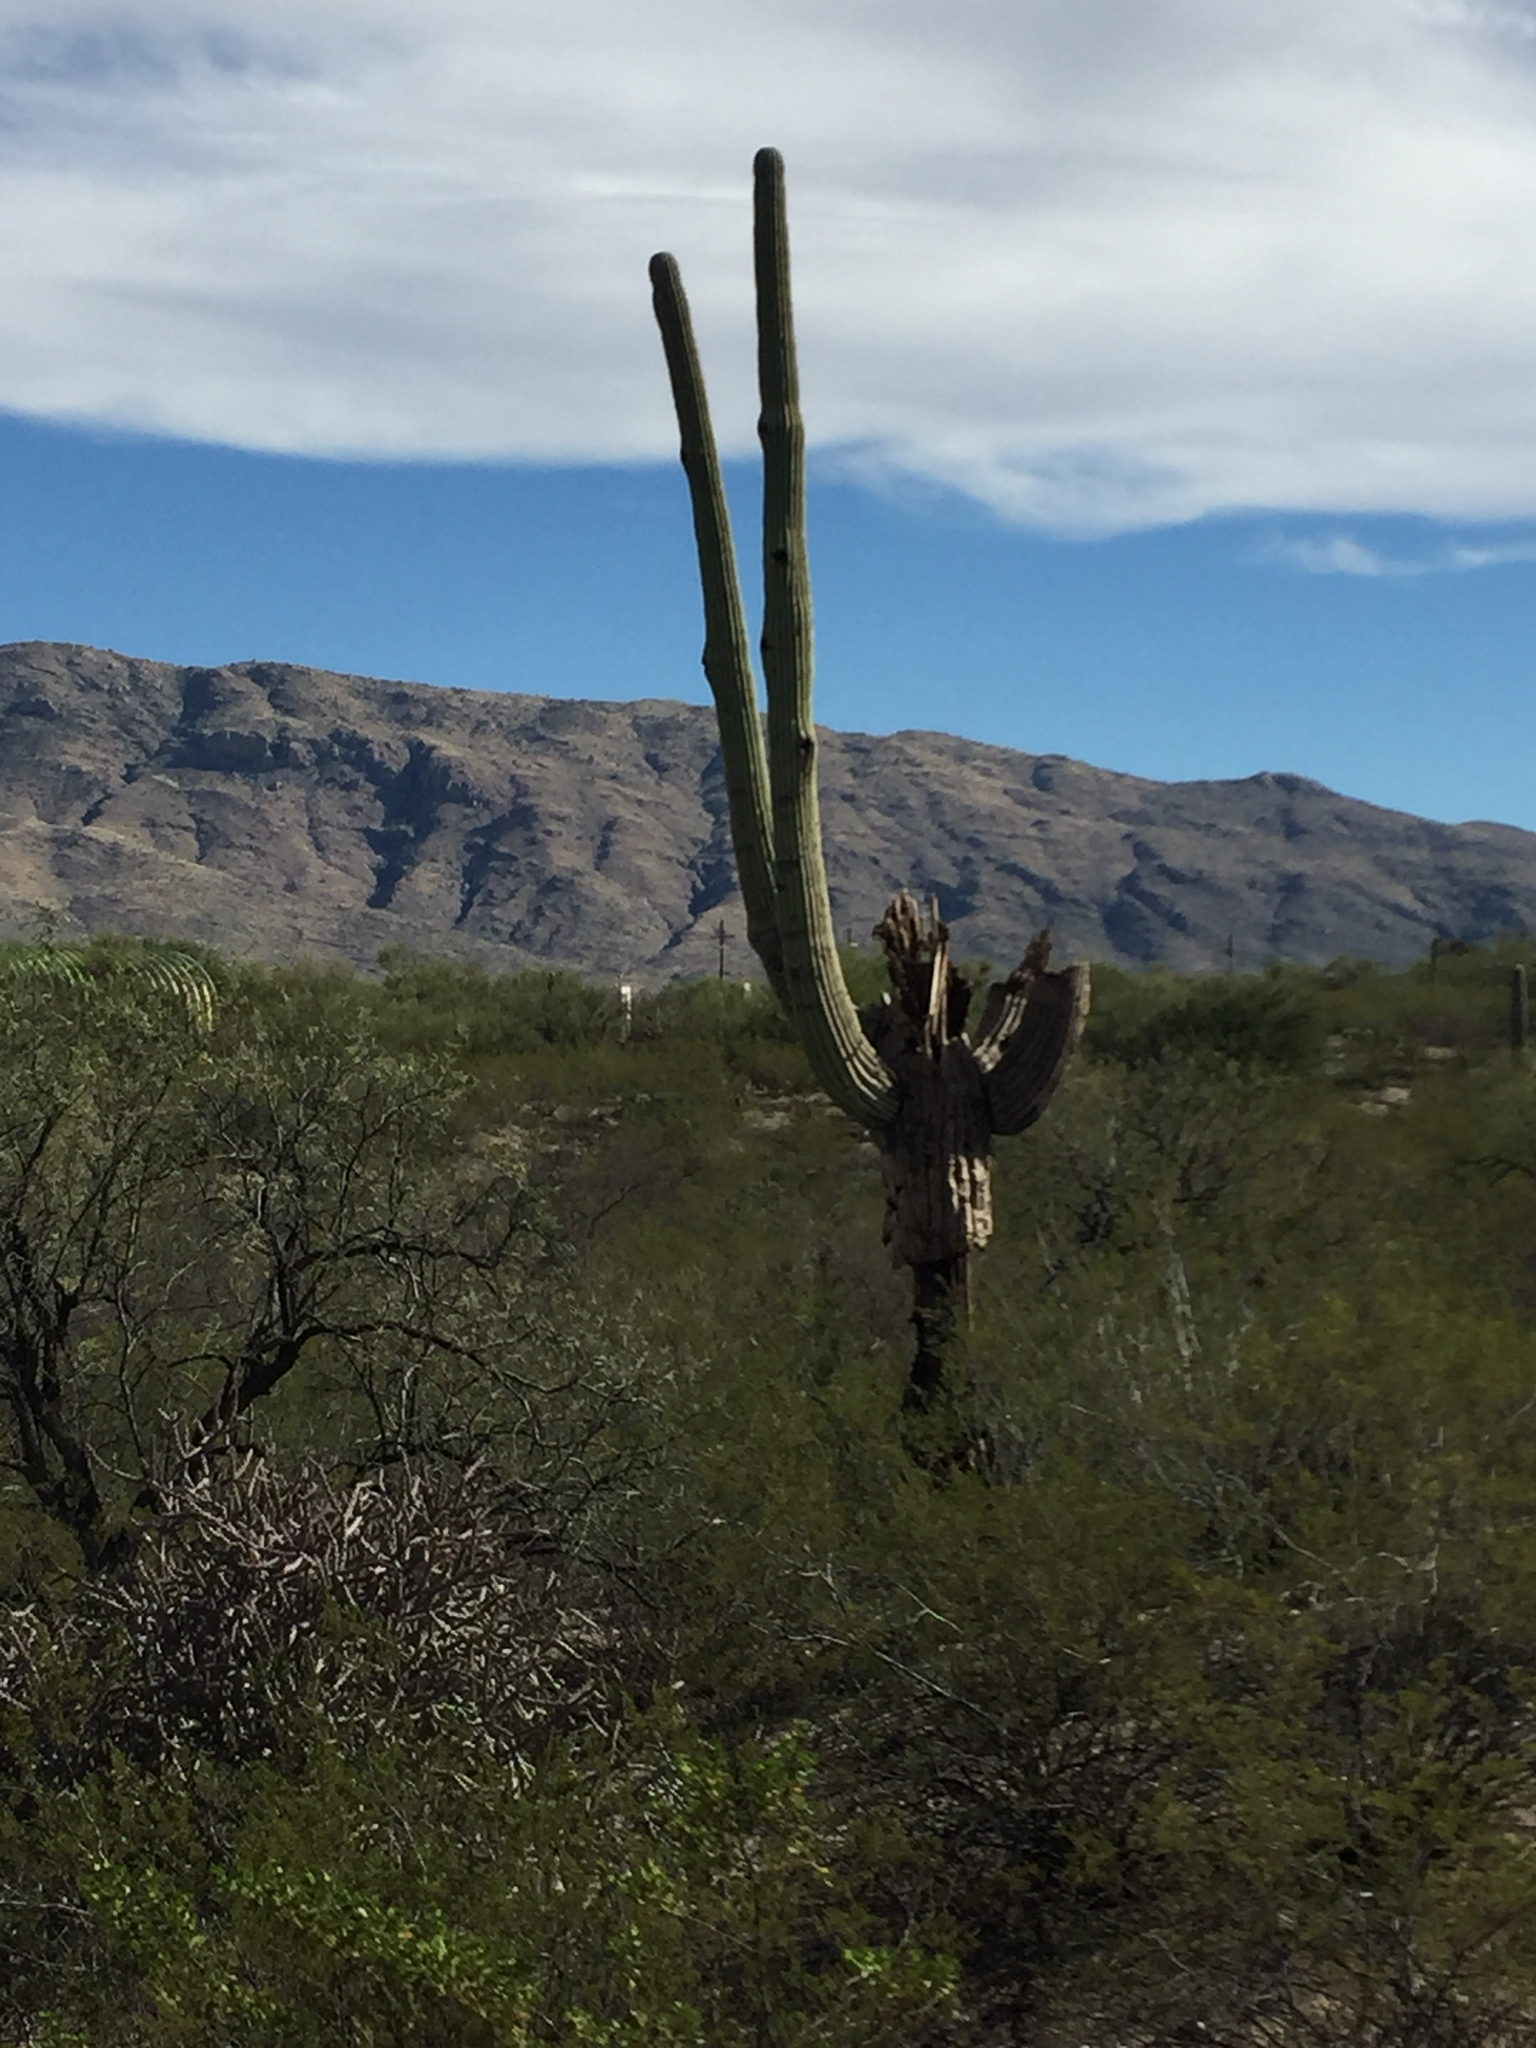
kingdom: Plantae
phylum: Tracheophyta
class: Magnoliopsida
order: Caryophyllales
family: Cactaceae
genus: Carnegiea
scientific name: Carnegiea gigantea
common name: Saguaro
